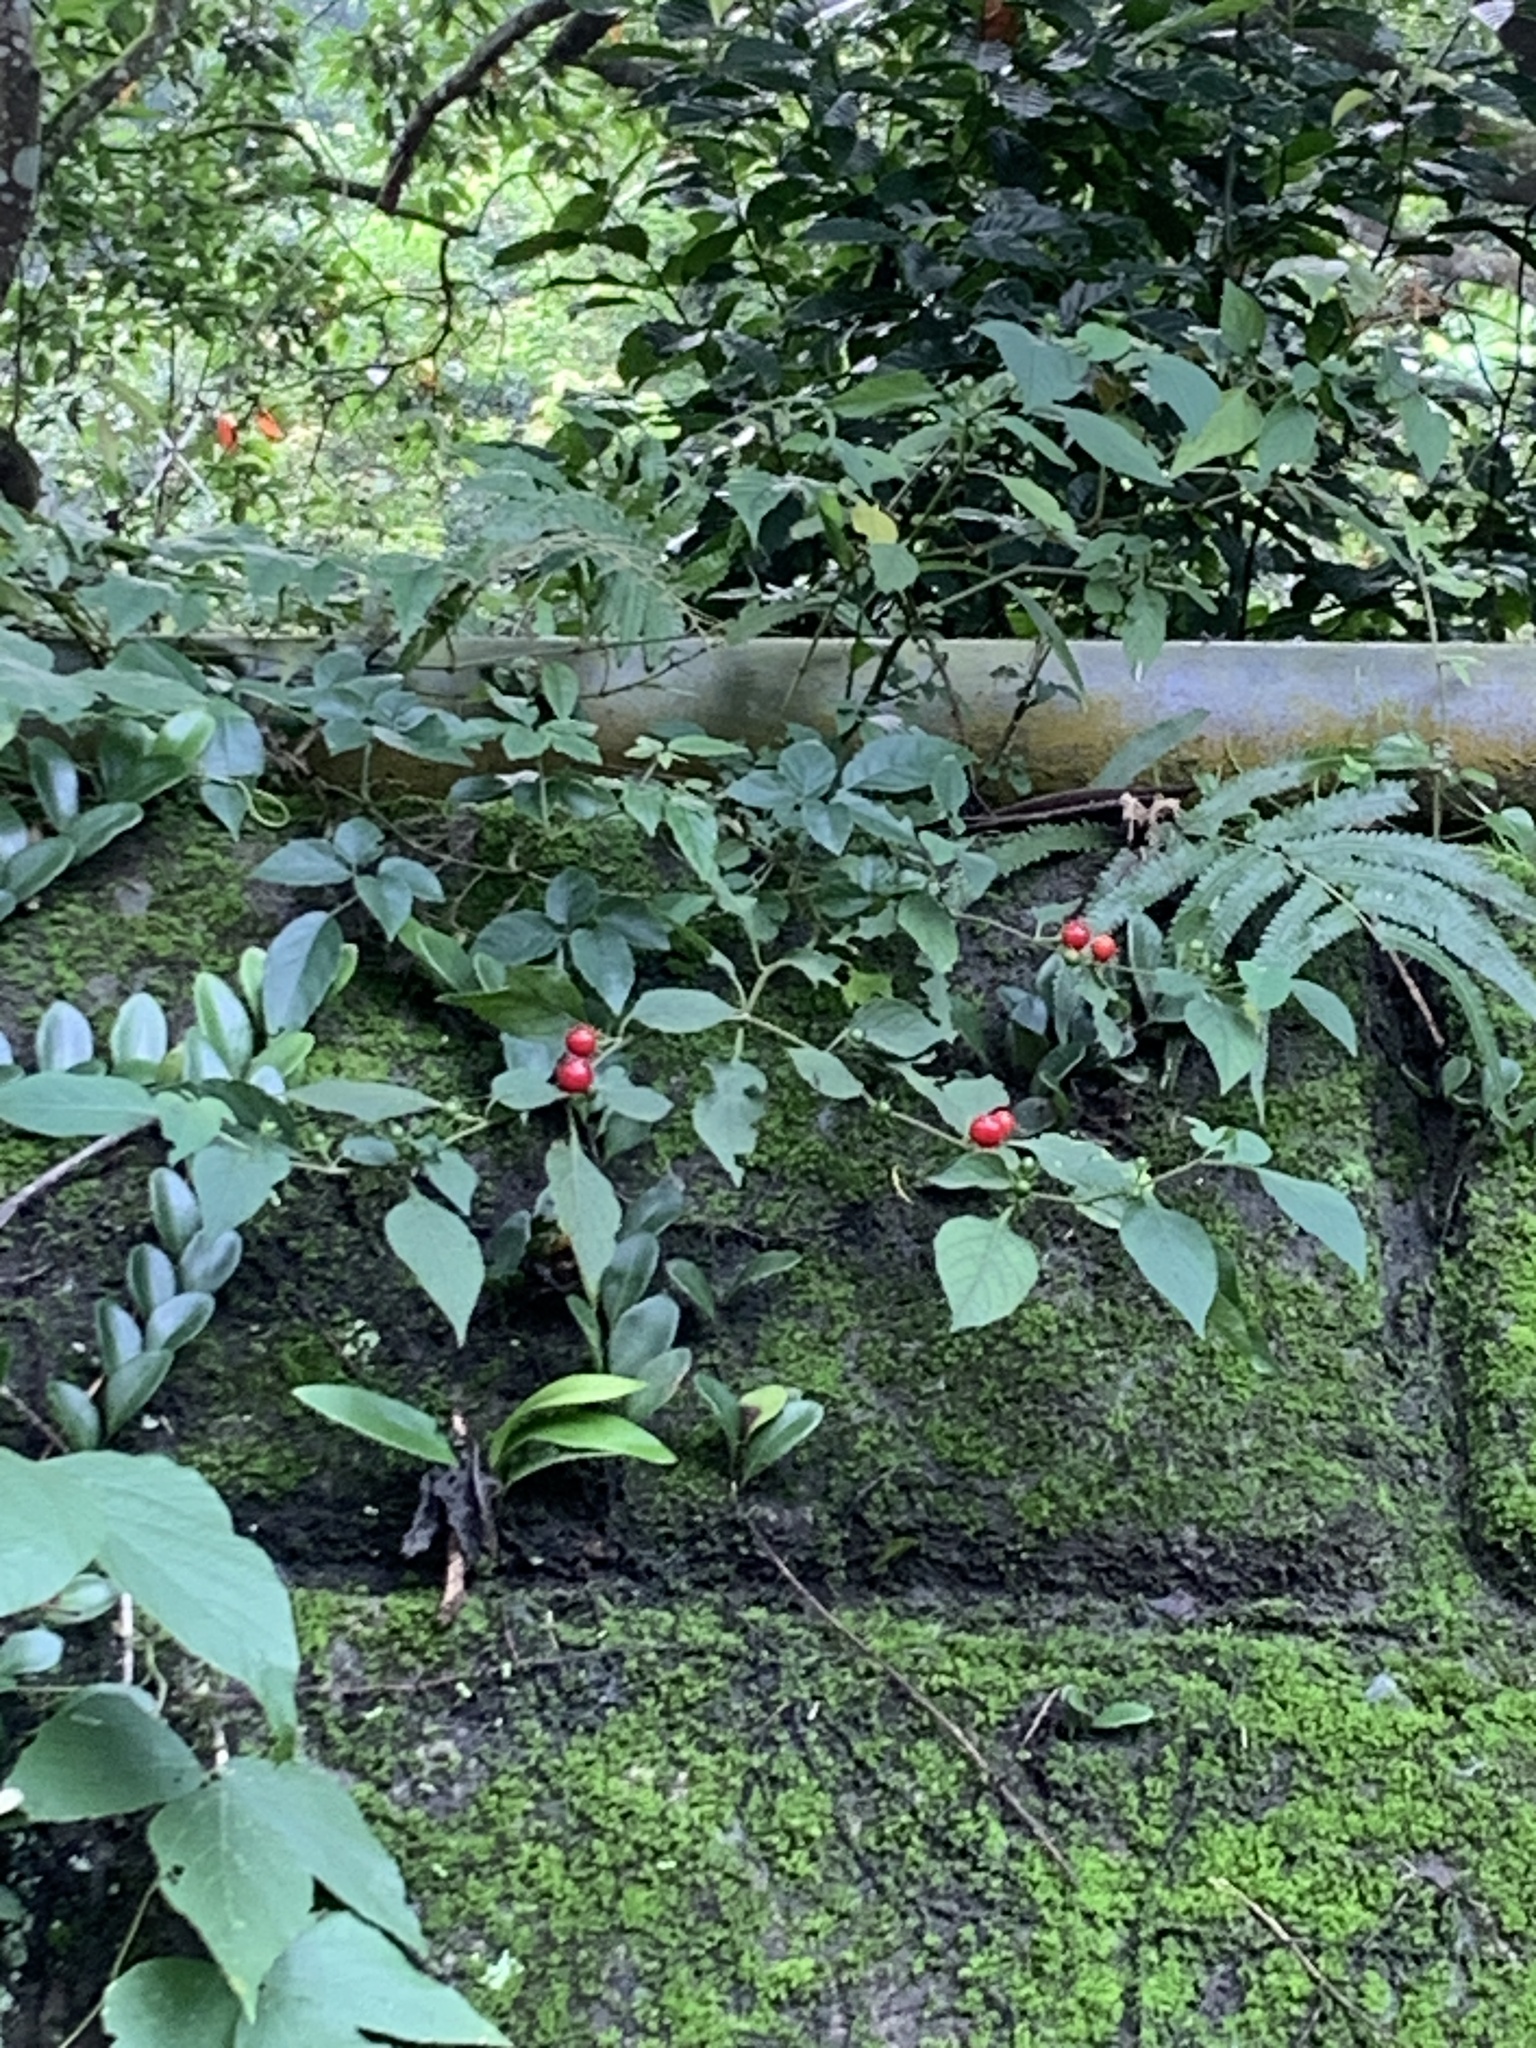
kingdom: Plantae
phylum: Tracheophyta
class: Magnoliopsida
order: Solanales
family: Solanaceae
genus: Lycianthes
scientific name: Lycianthes biflora
